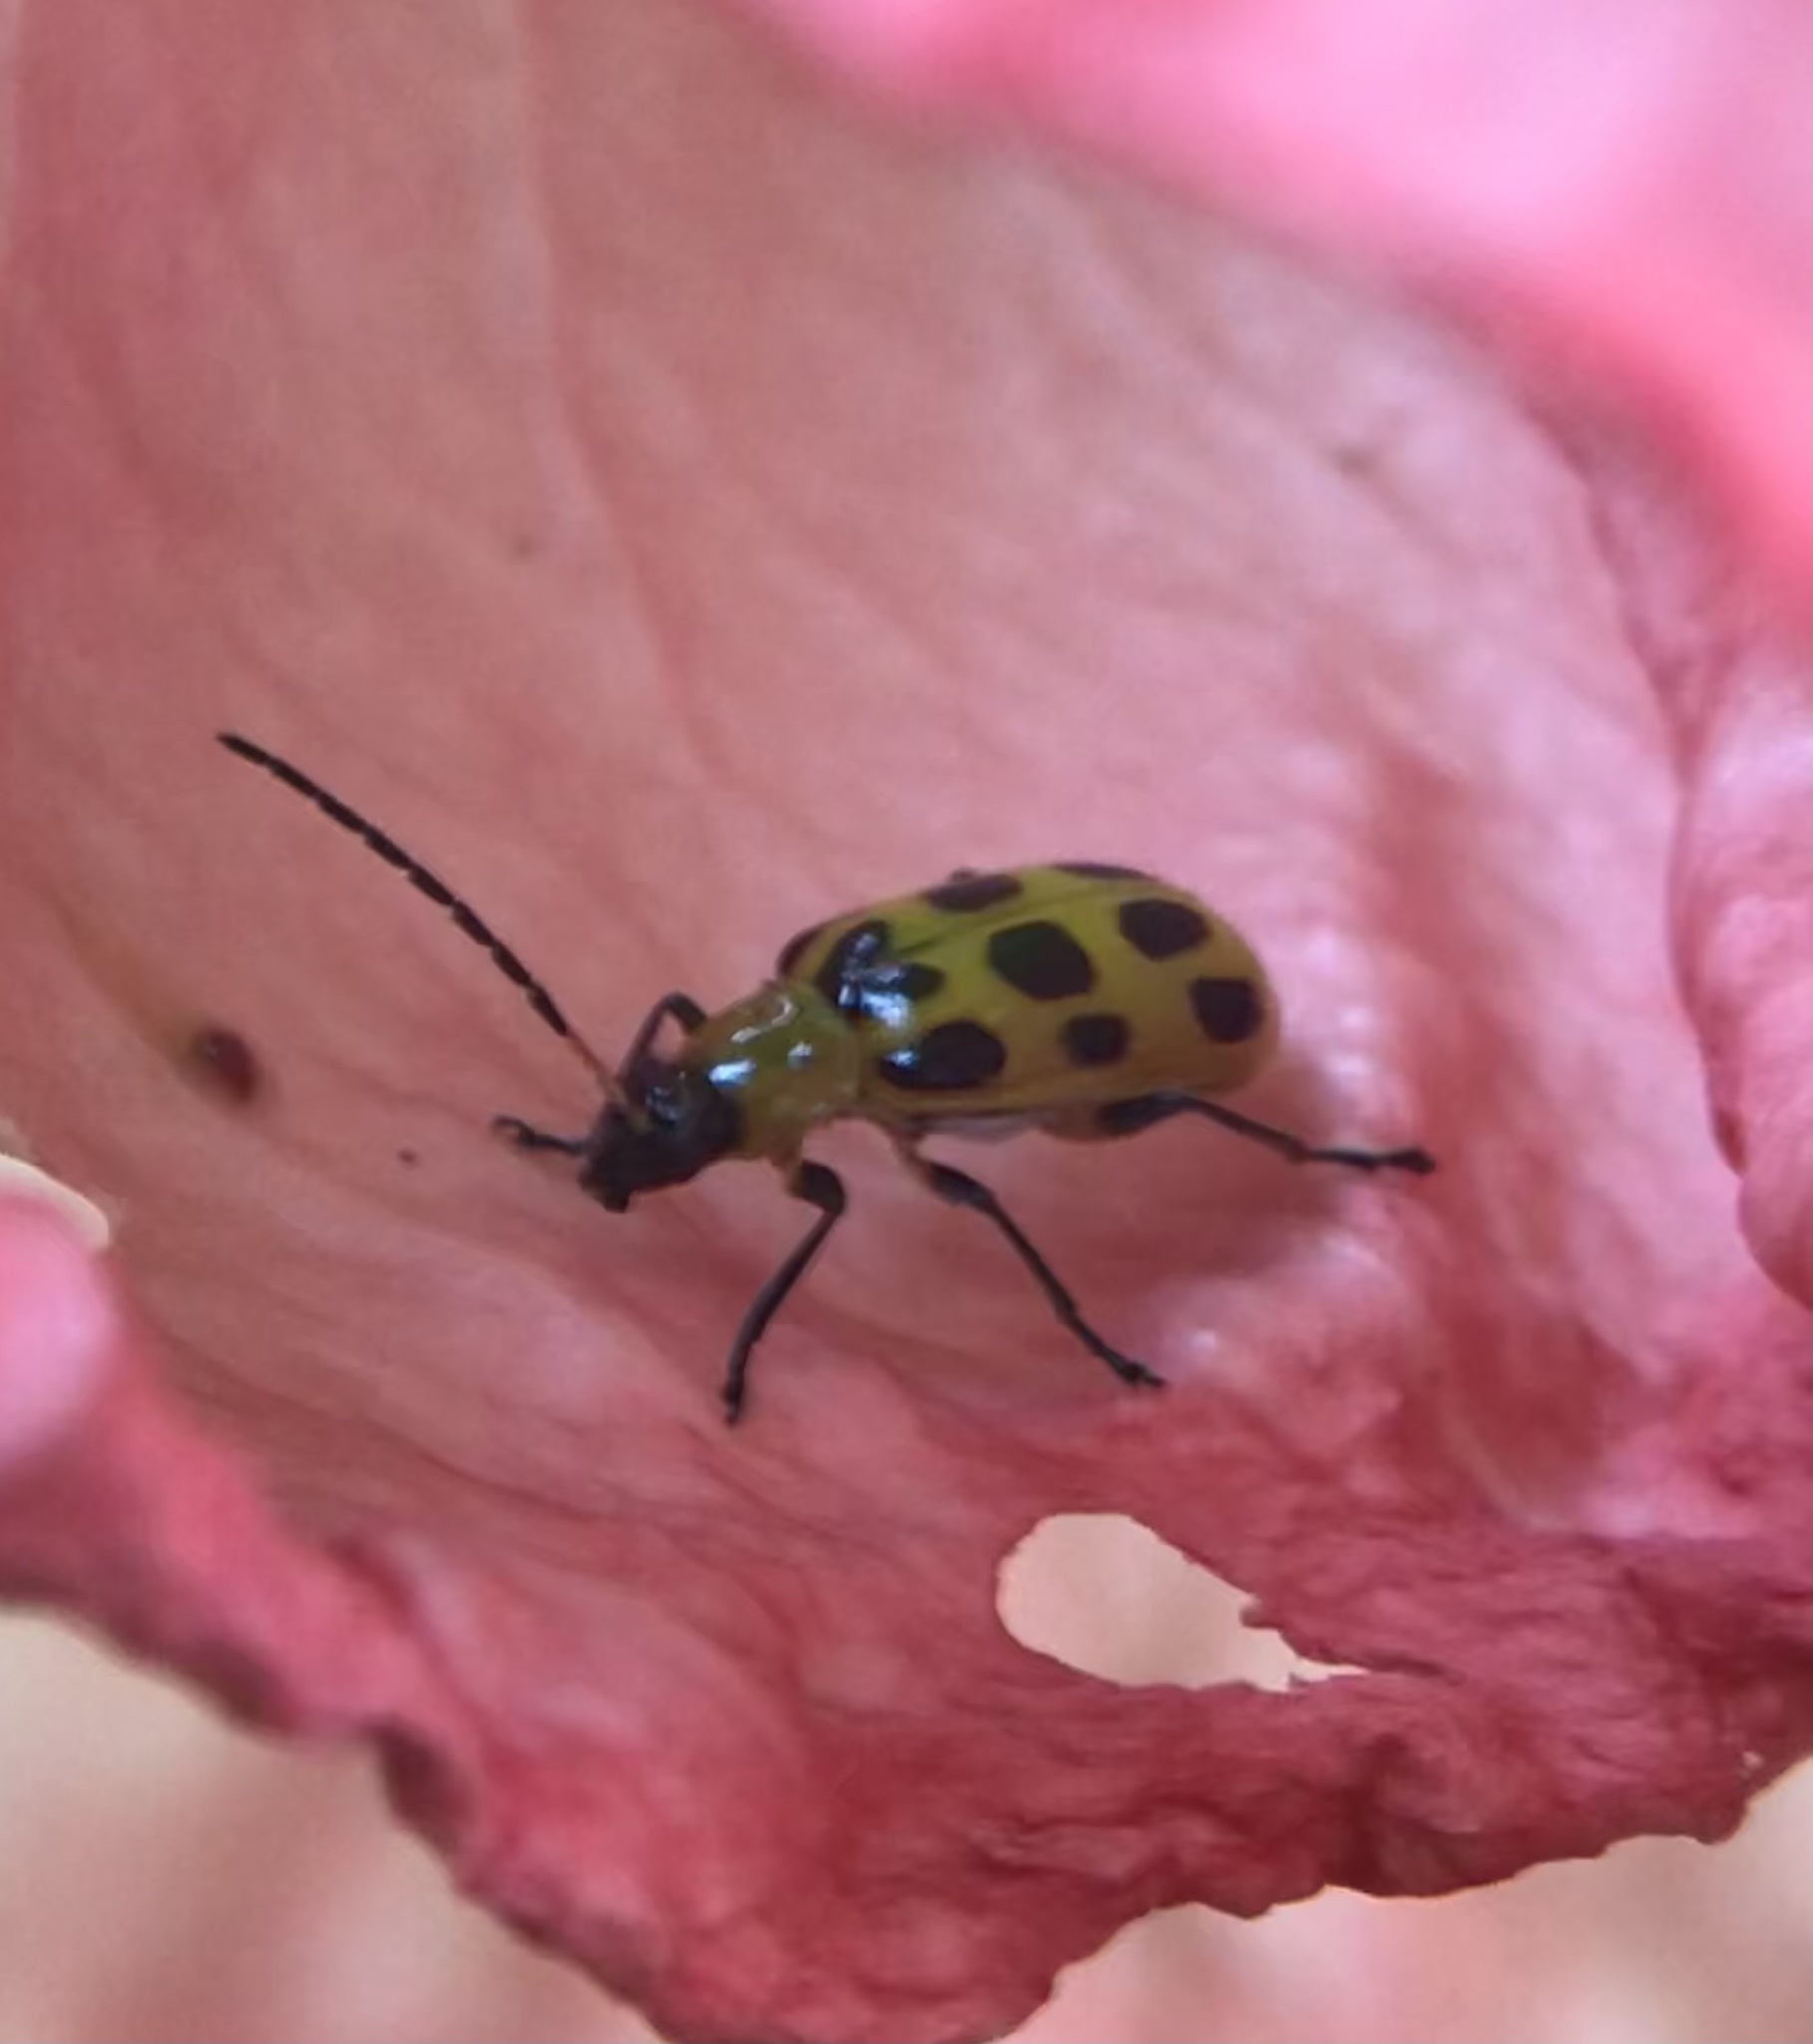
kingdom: Animalia
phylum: Arthropoda
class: Insecta
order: Coleoptera
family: Chrysomelidae
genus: Diabrotica
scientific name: Diabrotica undecimpunctata
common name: Spotted cucumber beetle
